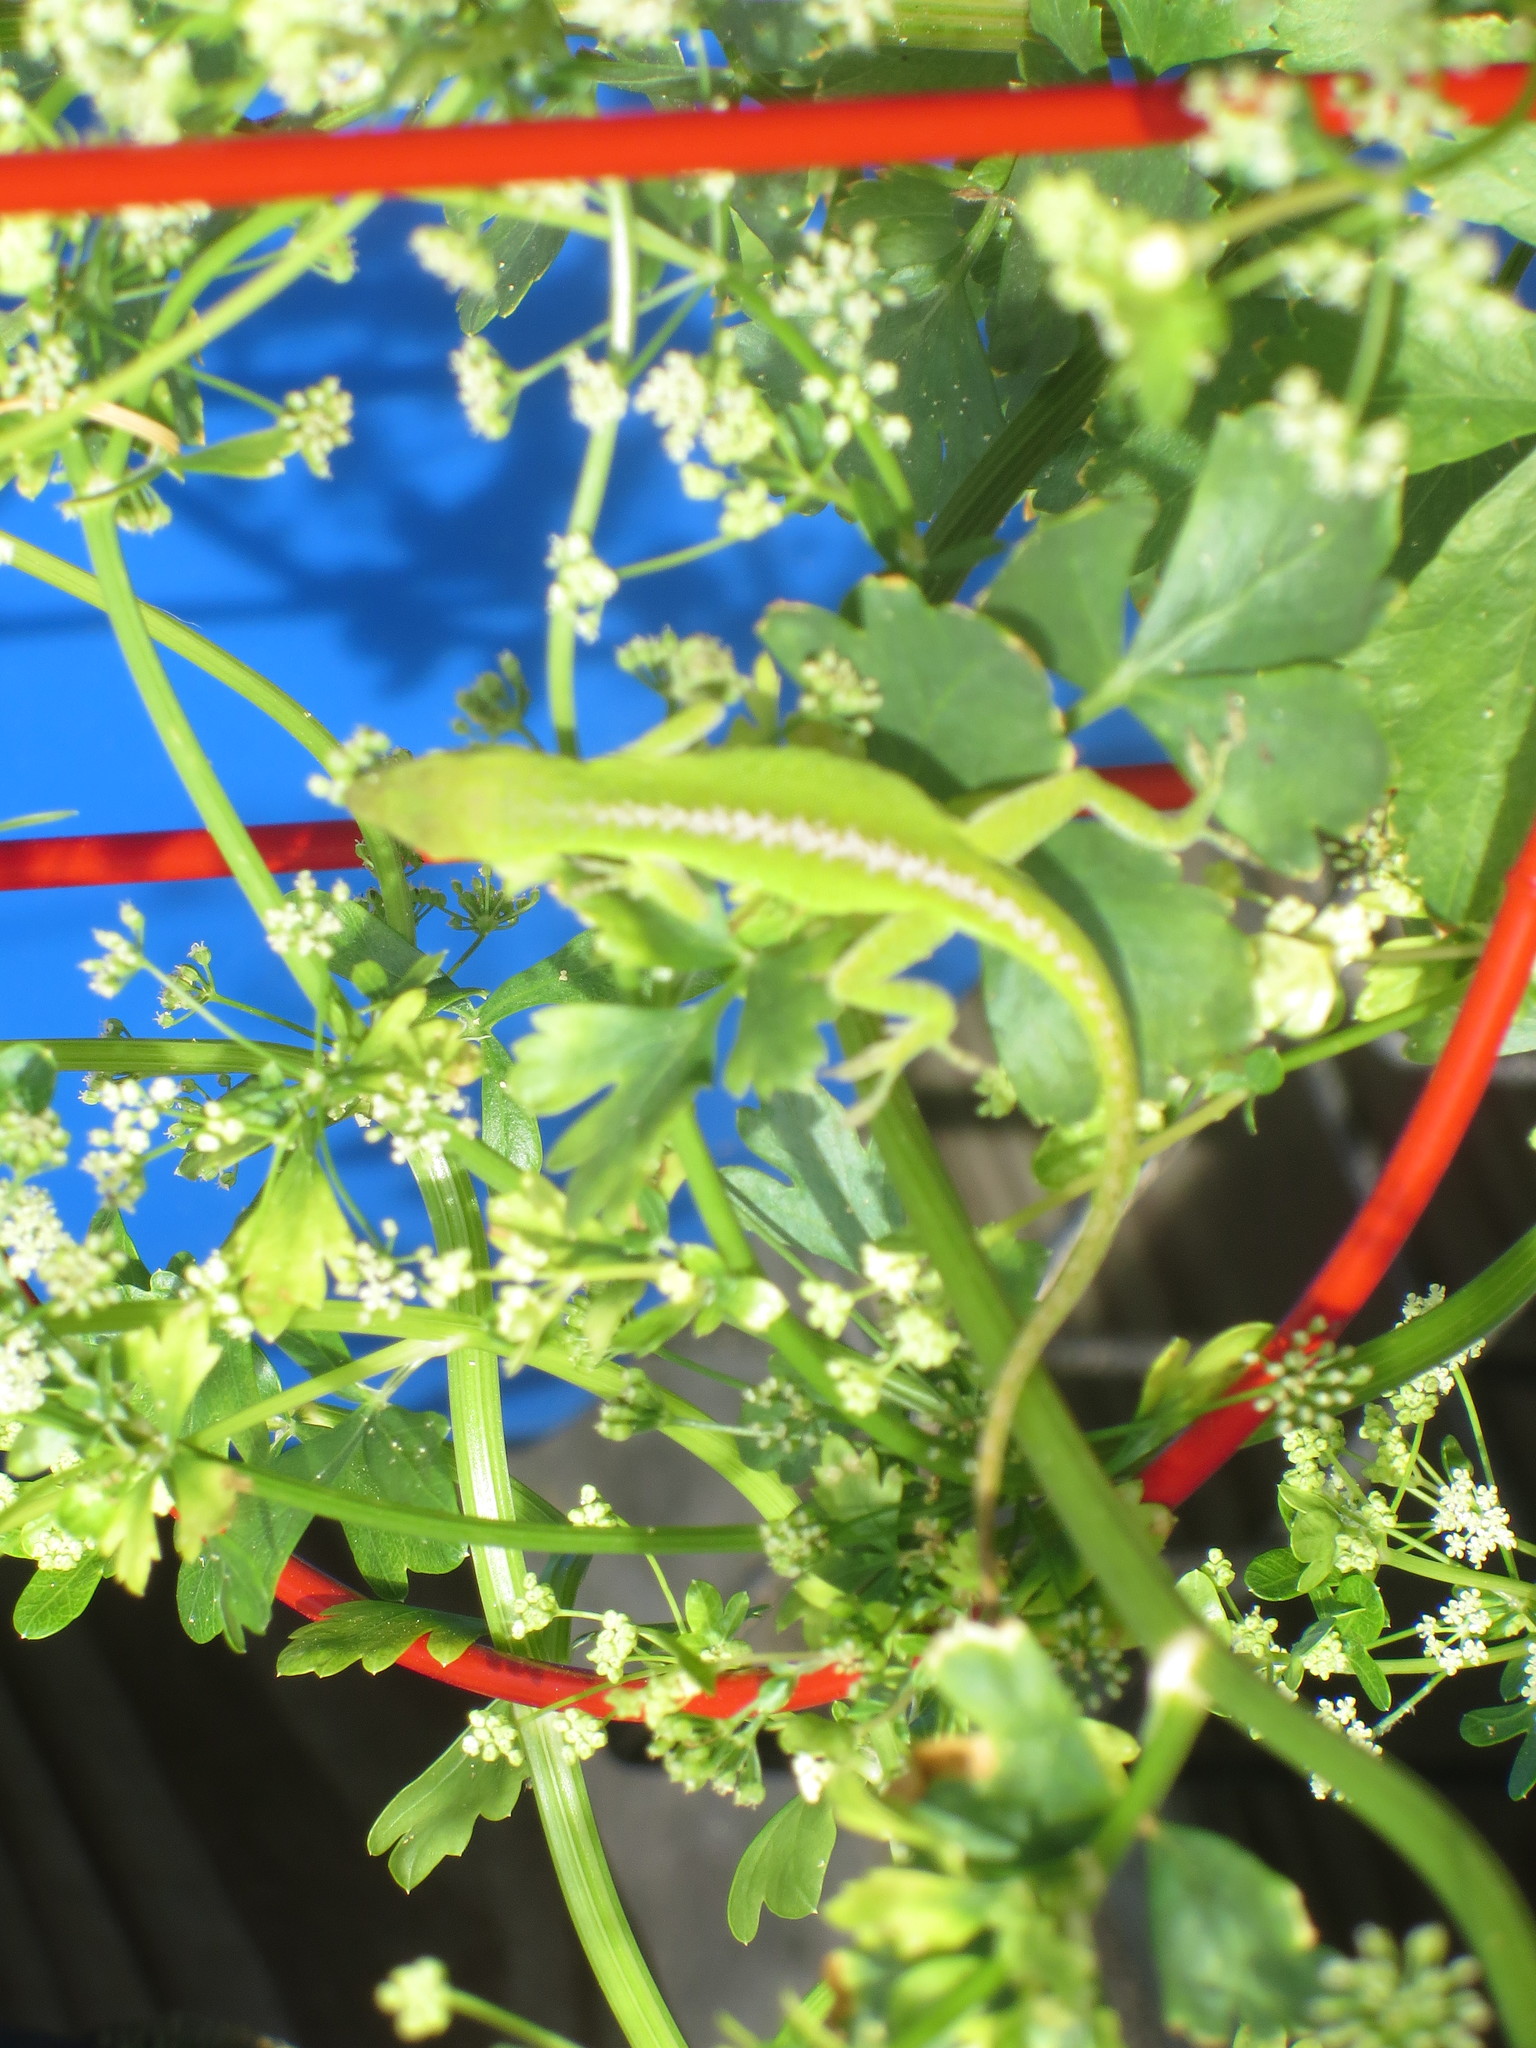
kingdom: Animalia
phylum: Chordata
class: Squamata
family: Dactyloidae
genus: Anolis
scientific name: Anolis carolinensis
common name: Green anole
